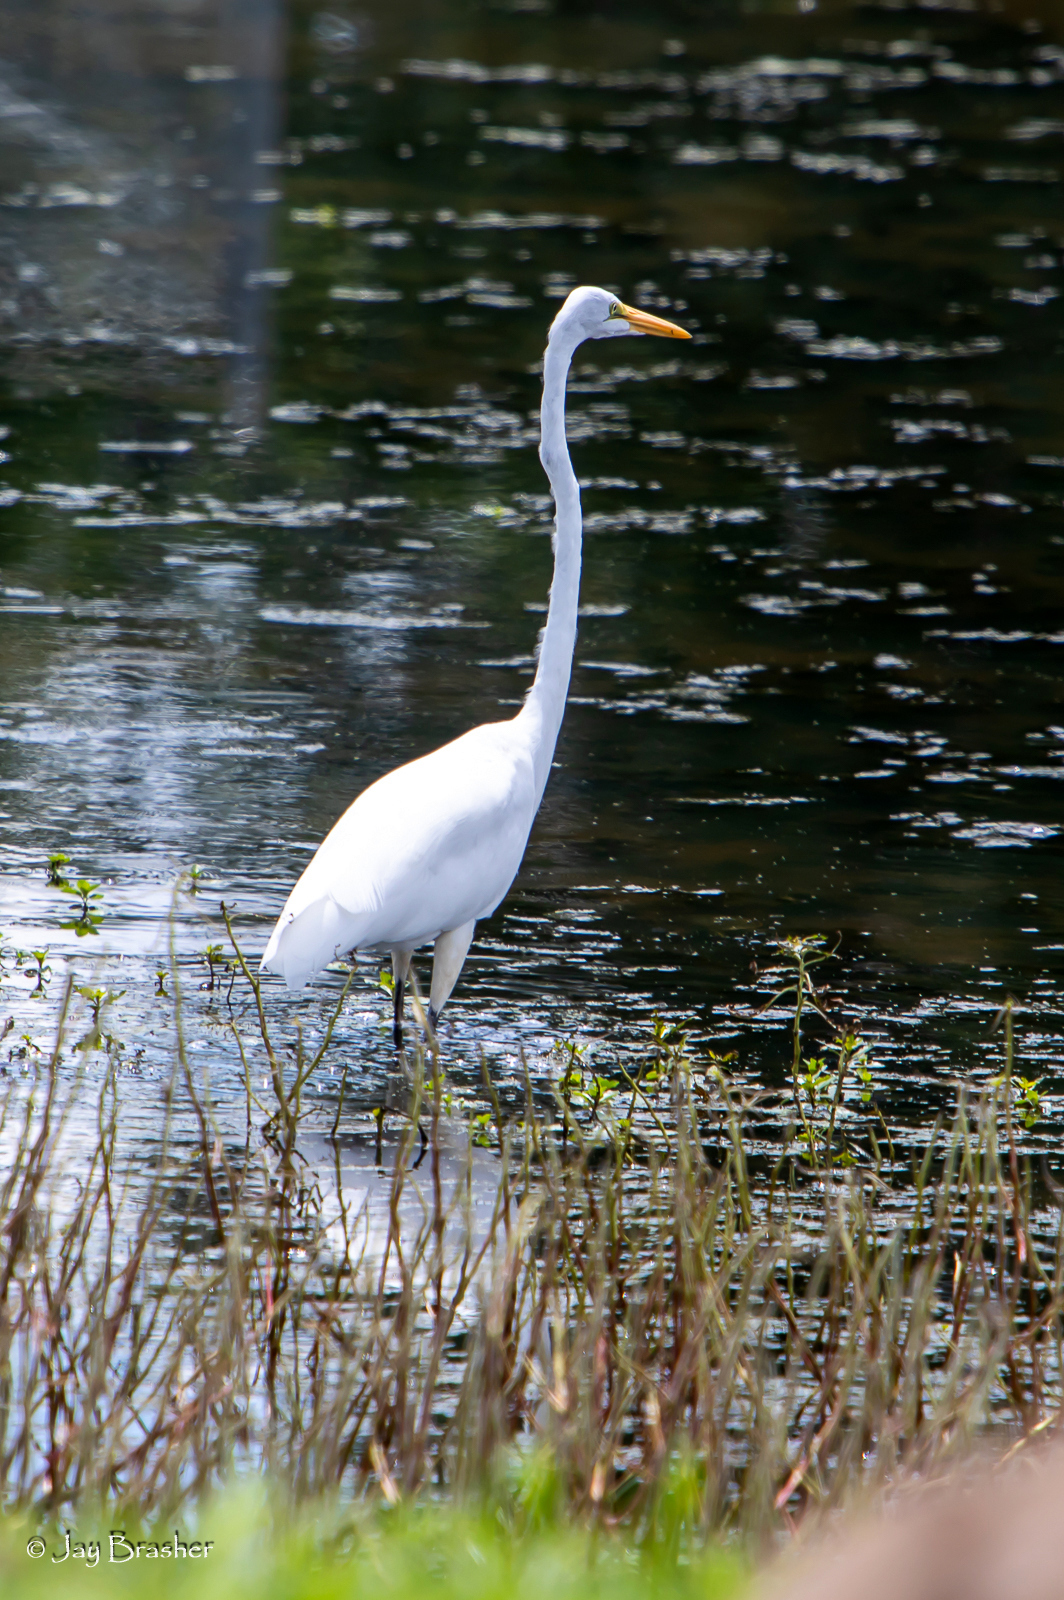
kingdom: Animalia
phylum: Chordata
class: Aves
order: Pelecaniformes
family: Ardeidae
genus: Ardea
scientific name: Ardea alba
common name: Great egret
